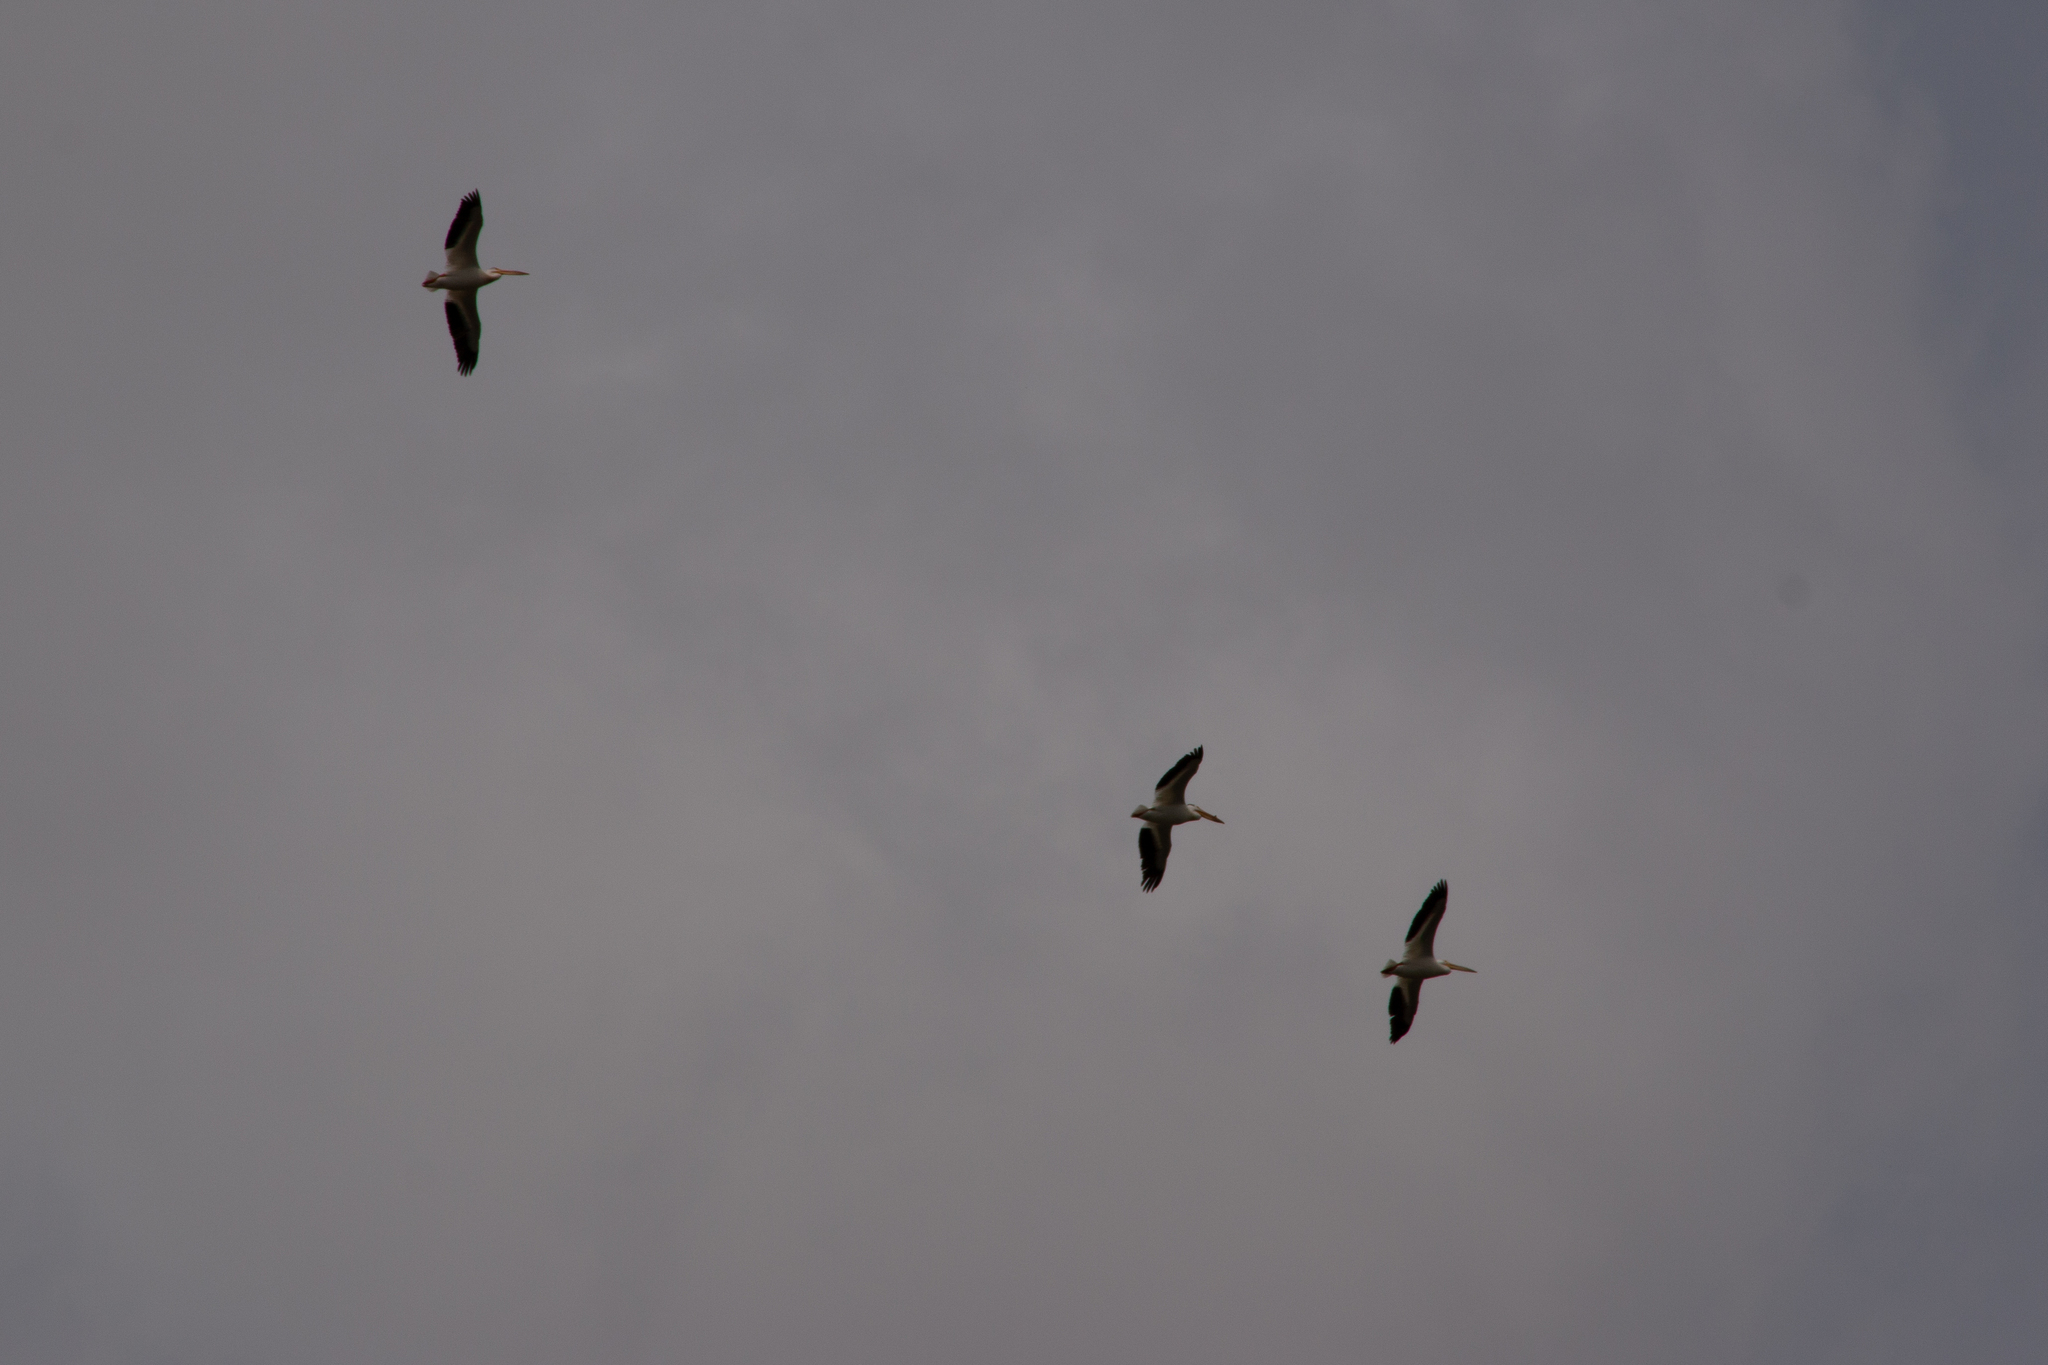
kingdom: Animalia
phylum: Chordata
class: Aves
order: Pelecaniformes
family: Pelecanidae
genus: Pelecanus
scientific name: Pelecanus erythrorhynchos
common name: American white pelican
